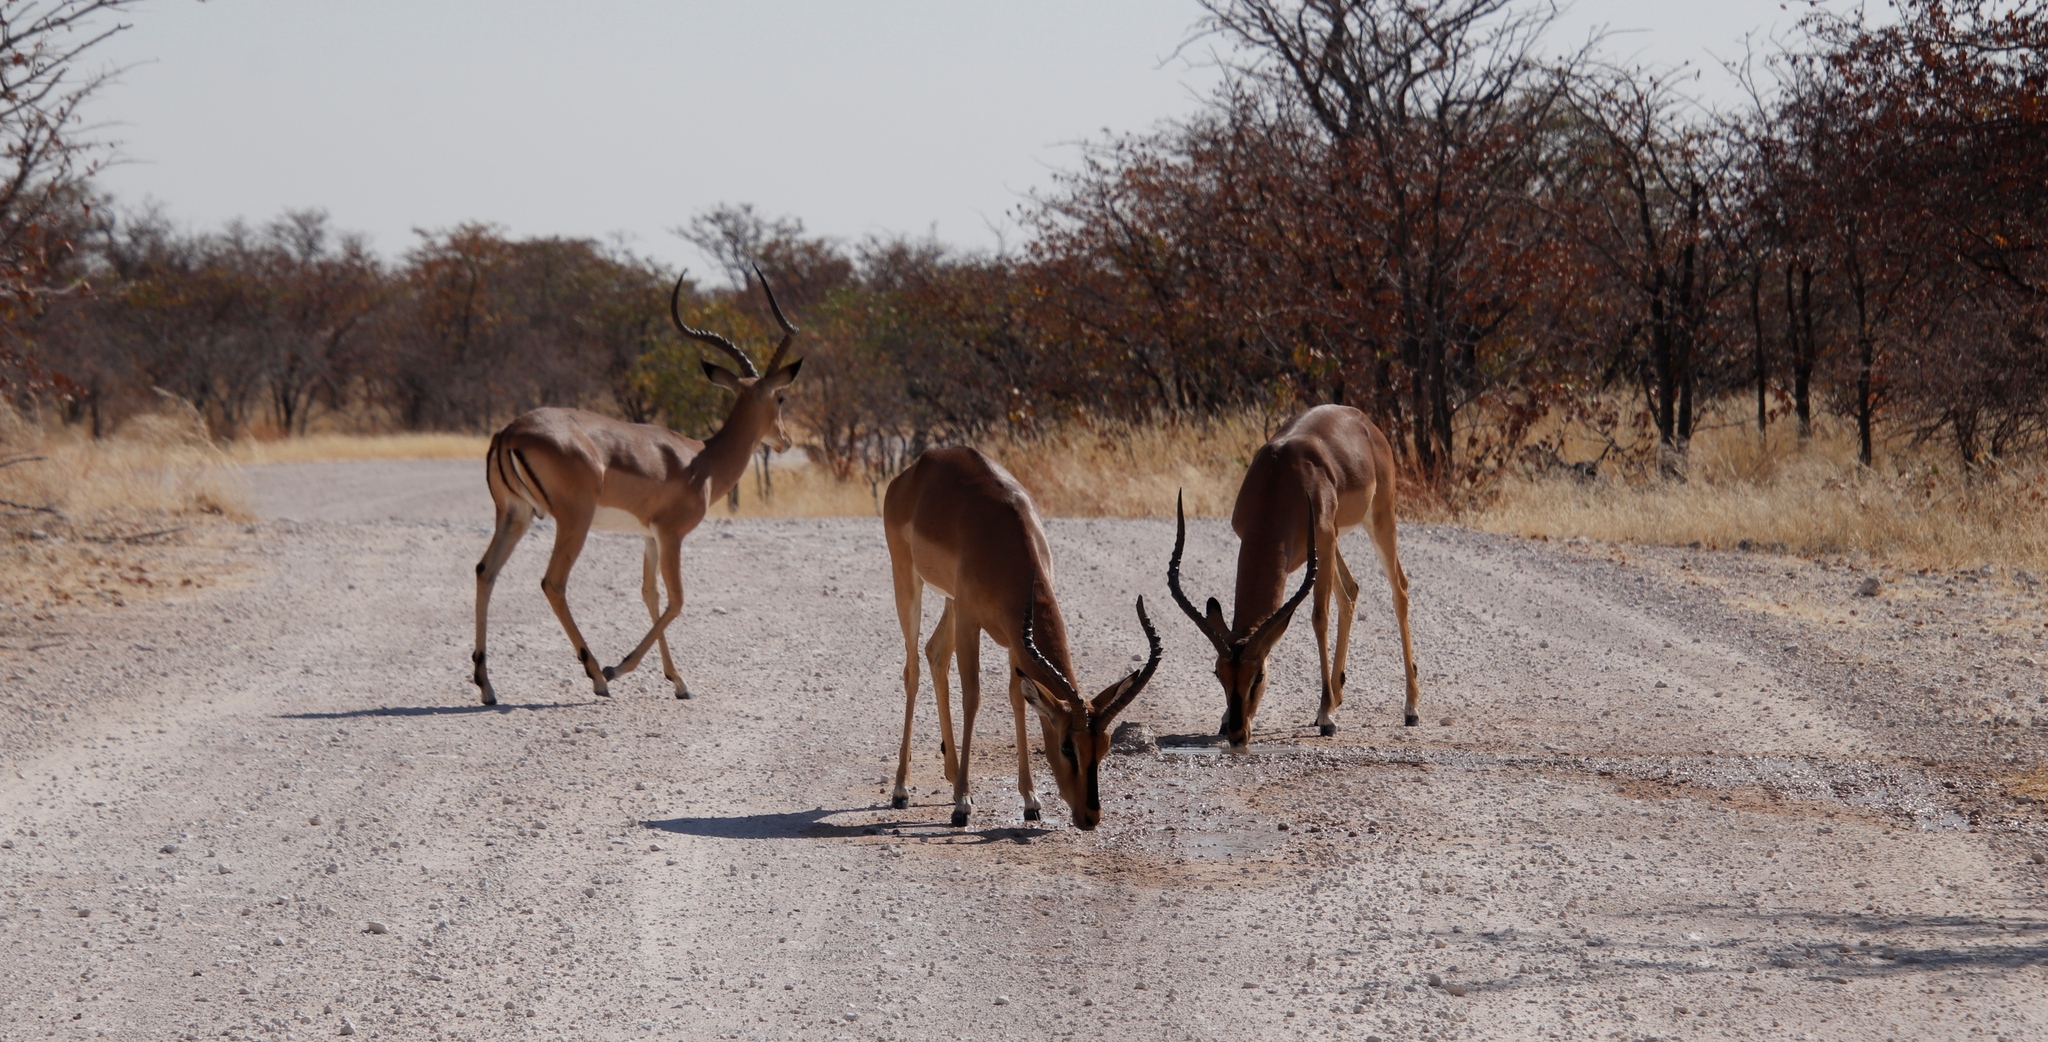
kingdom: Animalia
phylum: Chordata
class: Mammalia
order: Artiodactyla
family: Bovidae
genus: Aepyceros
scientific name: Aepyceros melampus
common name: Impala
